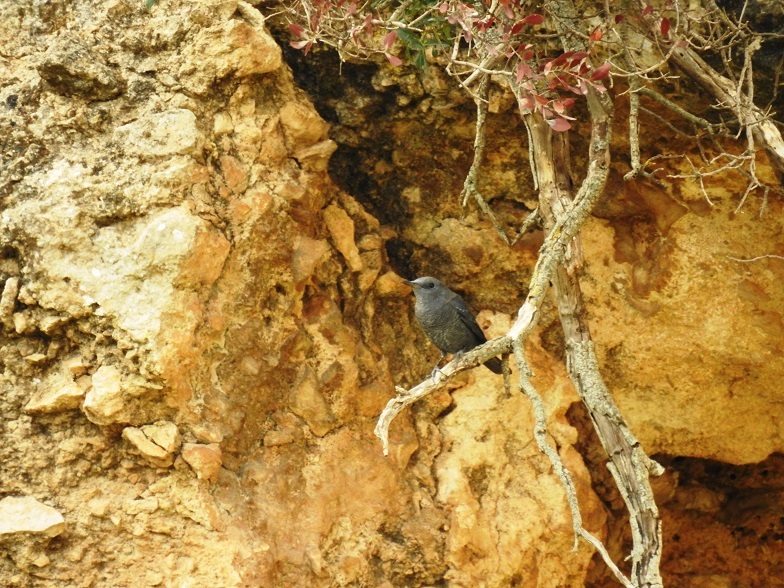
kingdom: Animalia
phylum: Chordata
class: Aves
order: Passeriformes
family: Muscicapidae
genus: Monticola
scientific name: Monticola solitarius
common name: Blue rock thrush
